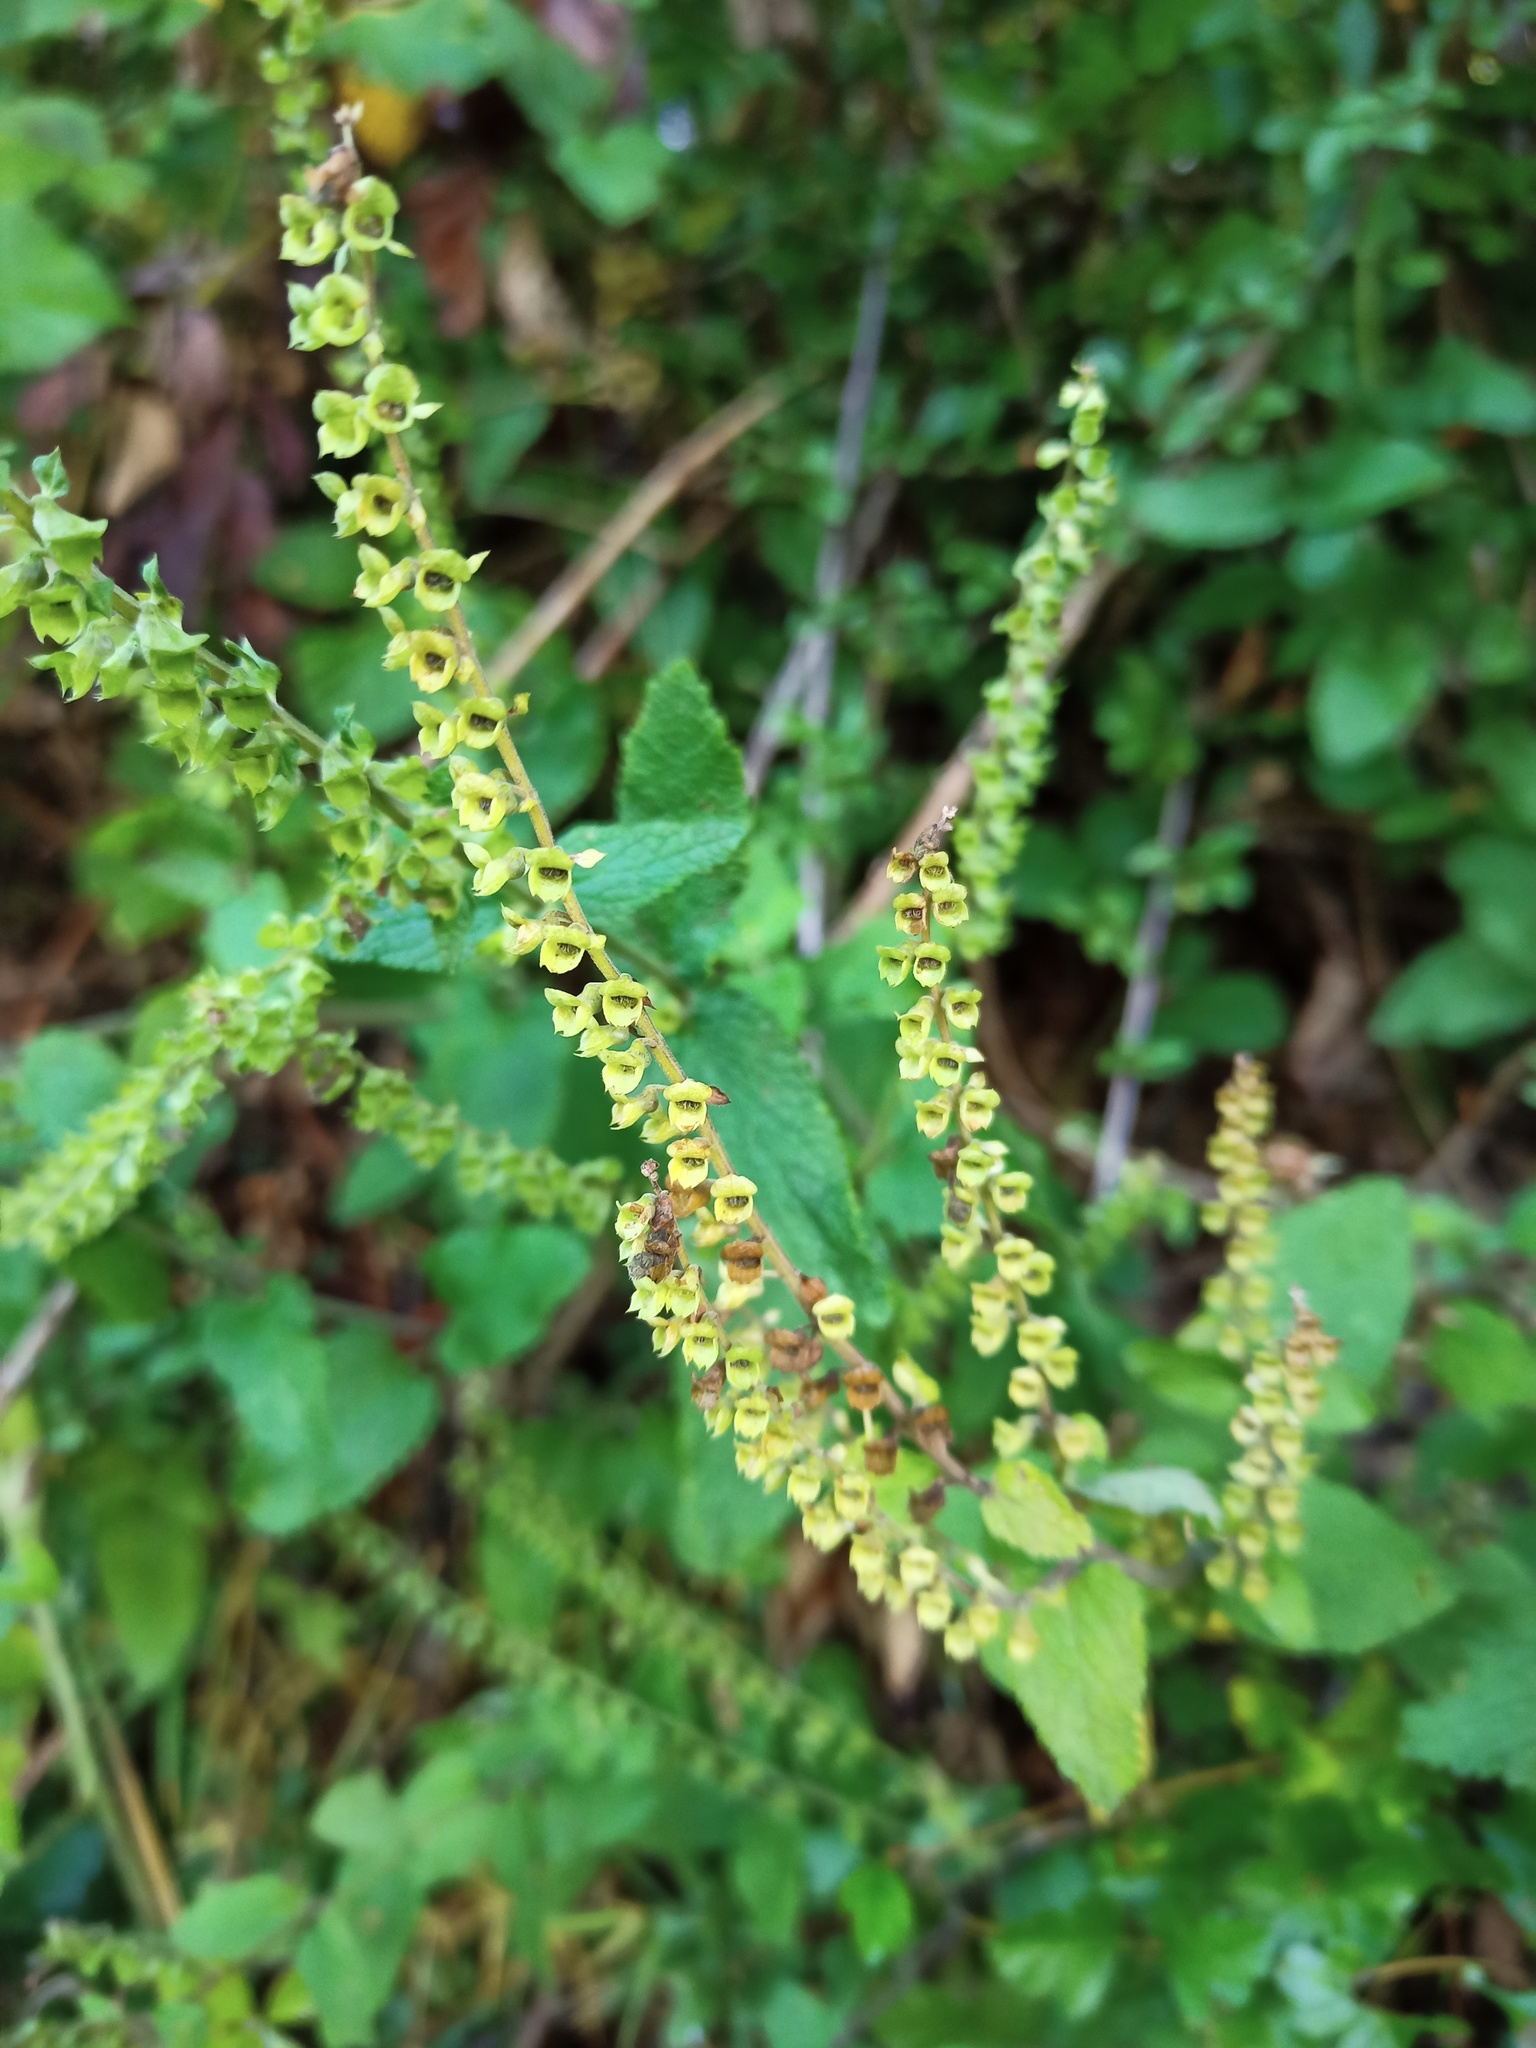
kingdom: Plantae
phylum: Tracheophyta
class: Magnoliopsida
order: Lamiales
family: Lamiaceae
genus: Teucrium
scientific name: Teucrium scorodonia
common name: Woodland germander
